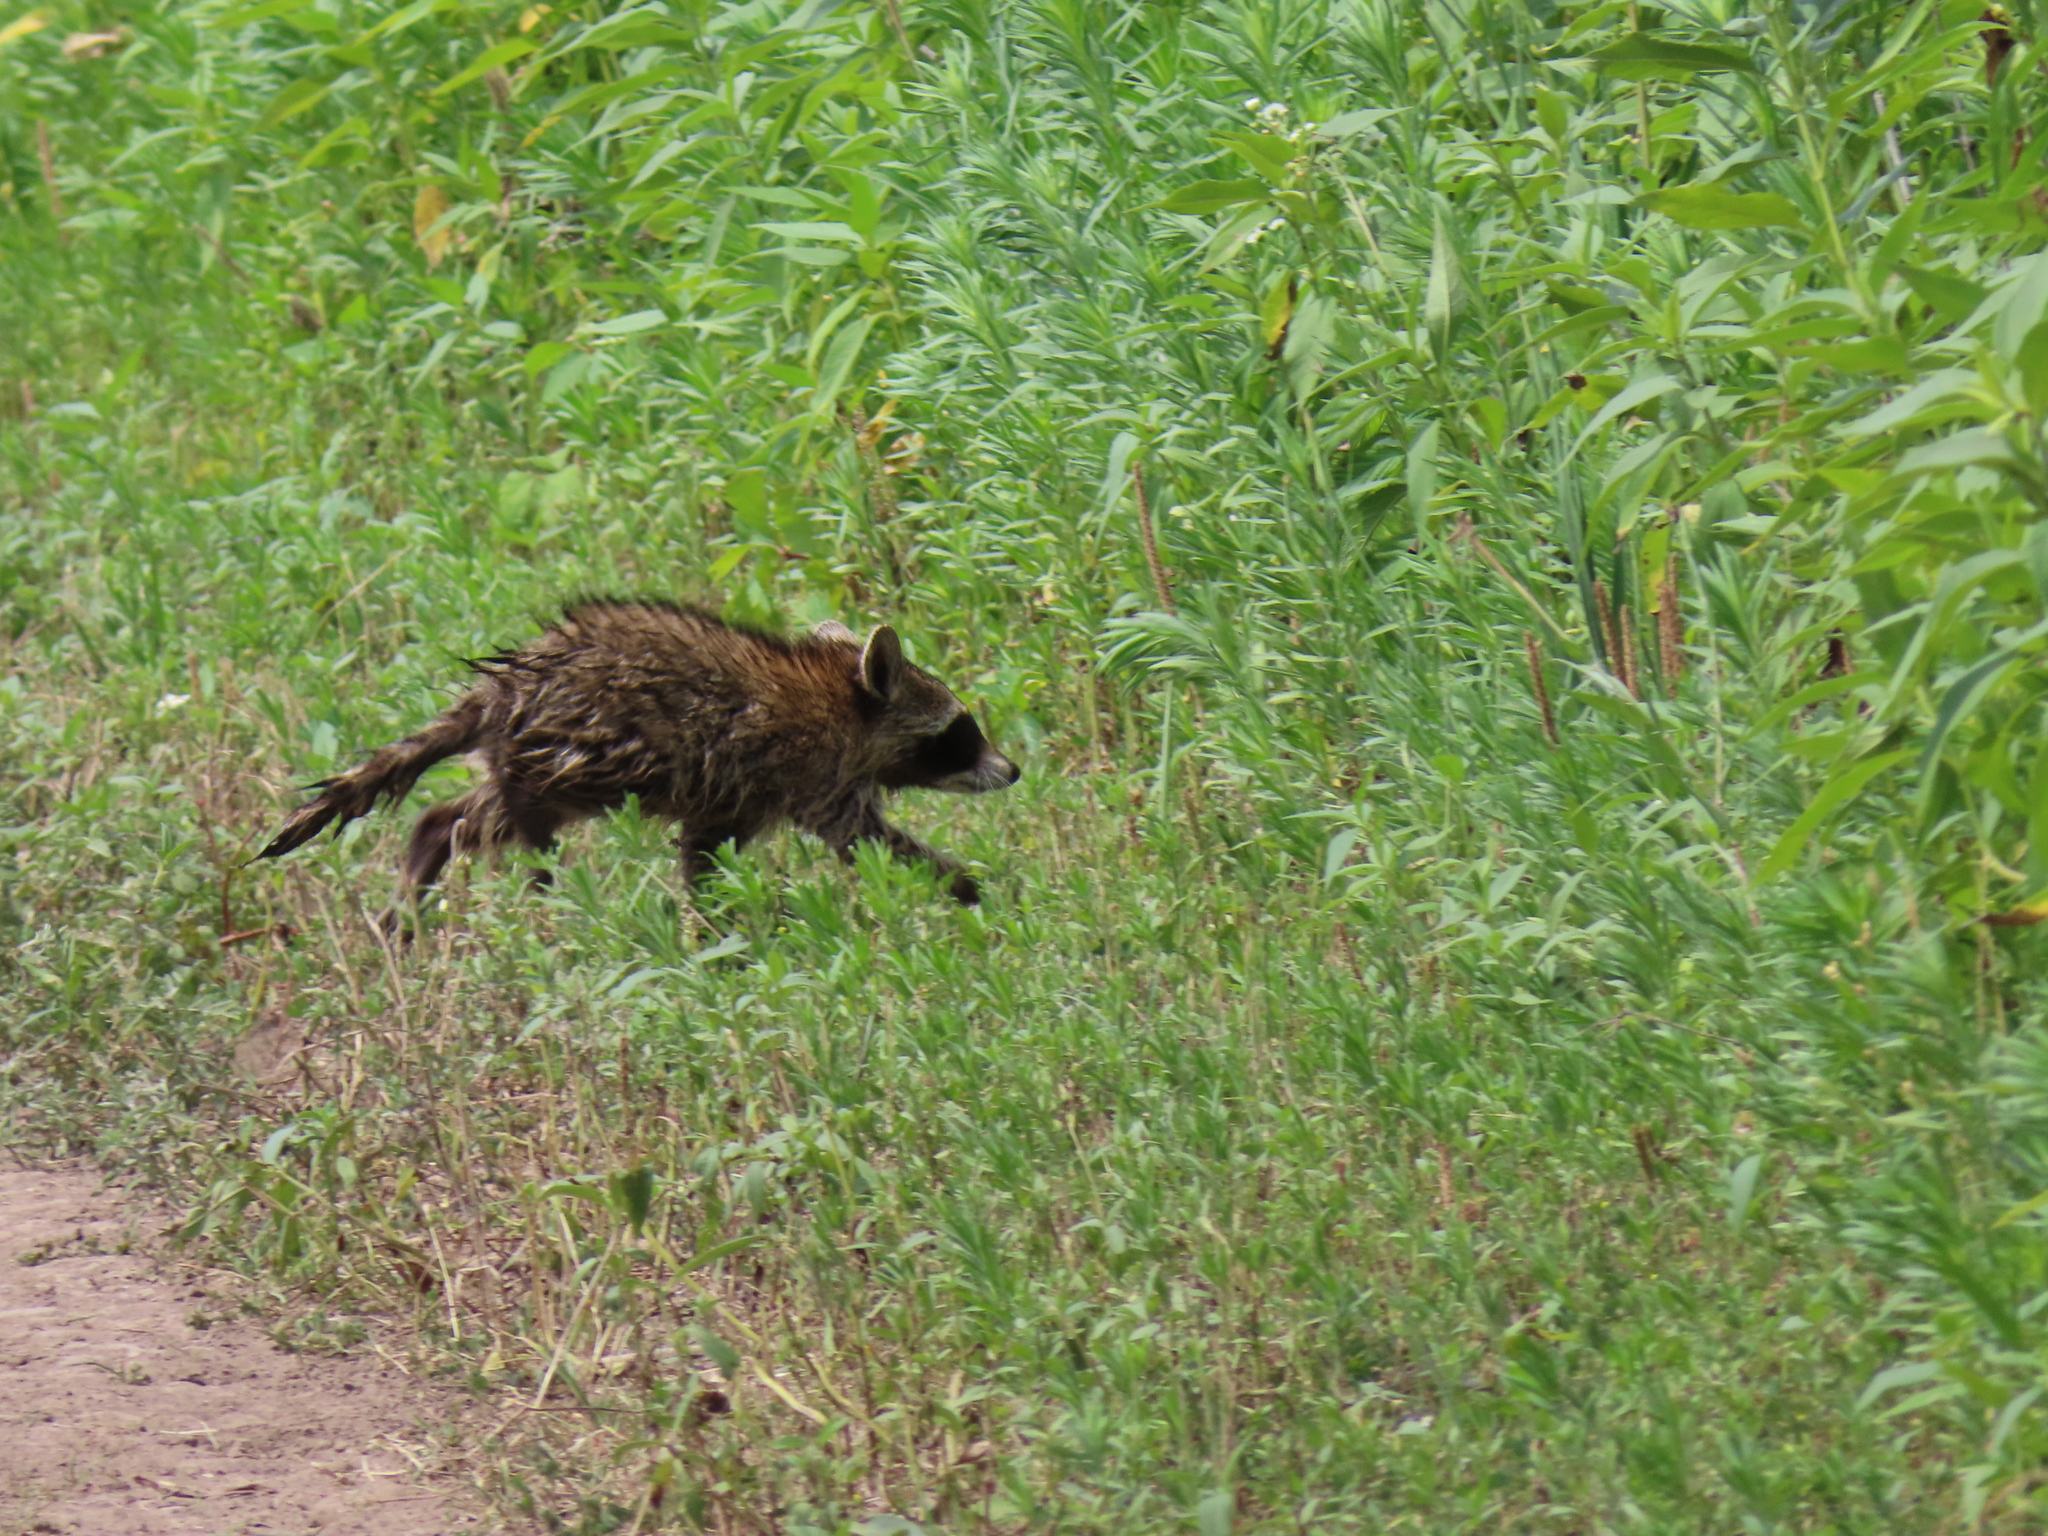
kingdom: Animalia
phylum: Chordata
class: Mammalia
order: Carnivora
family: Procyonidae
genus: Procyon
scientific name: Procyon lotor
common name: Raccoon
